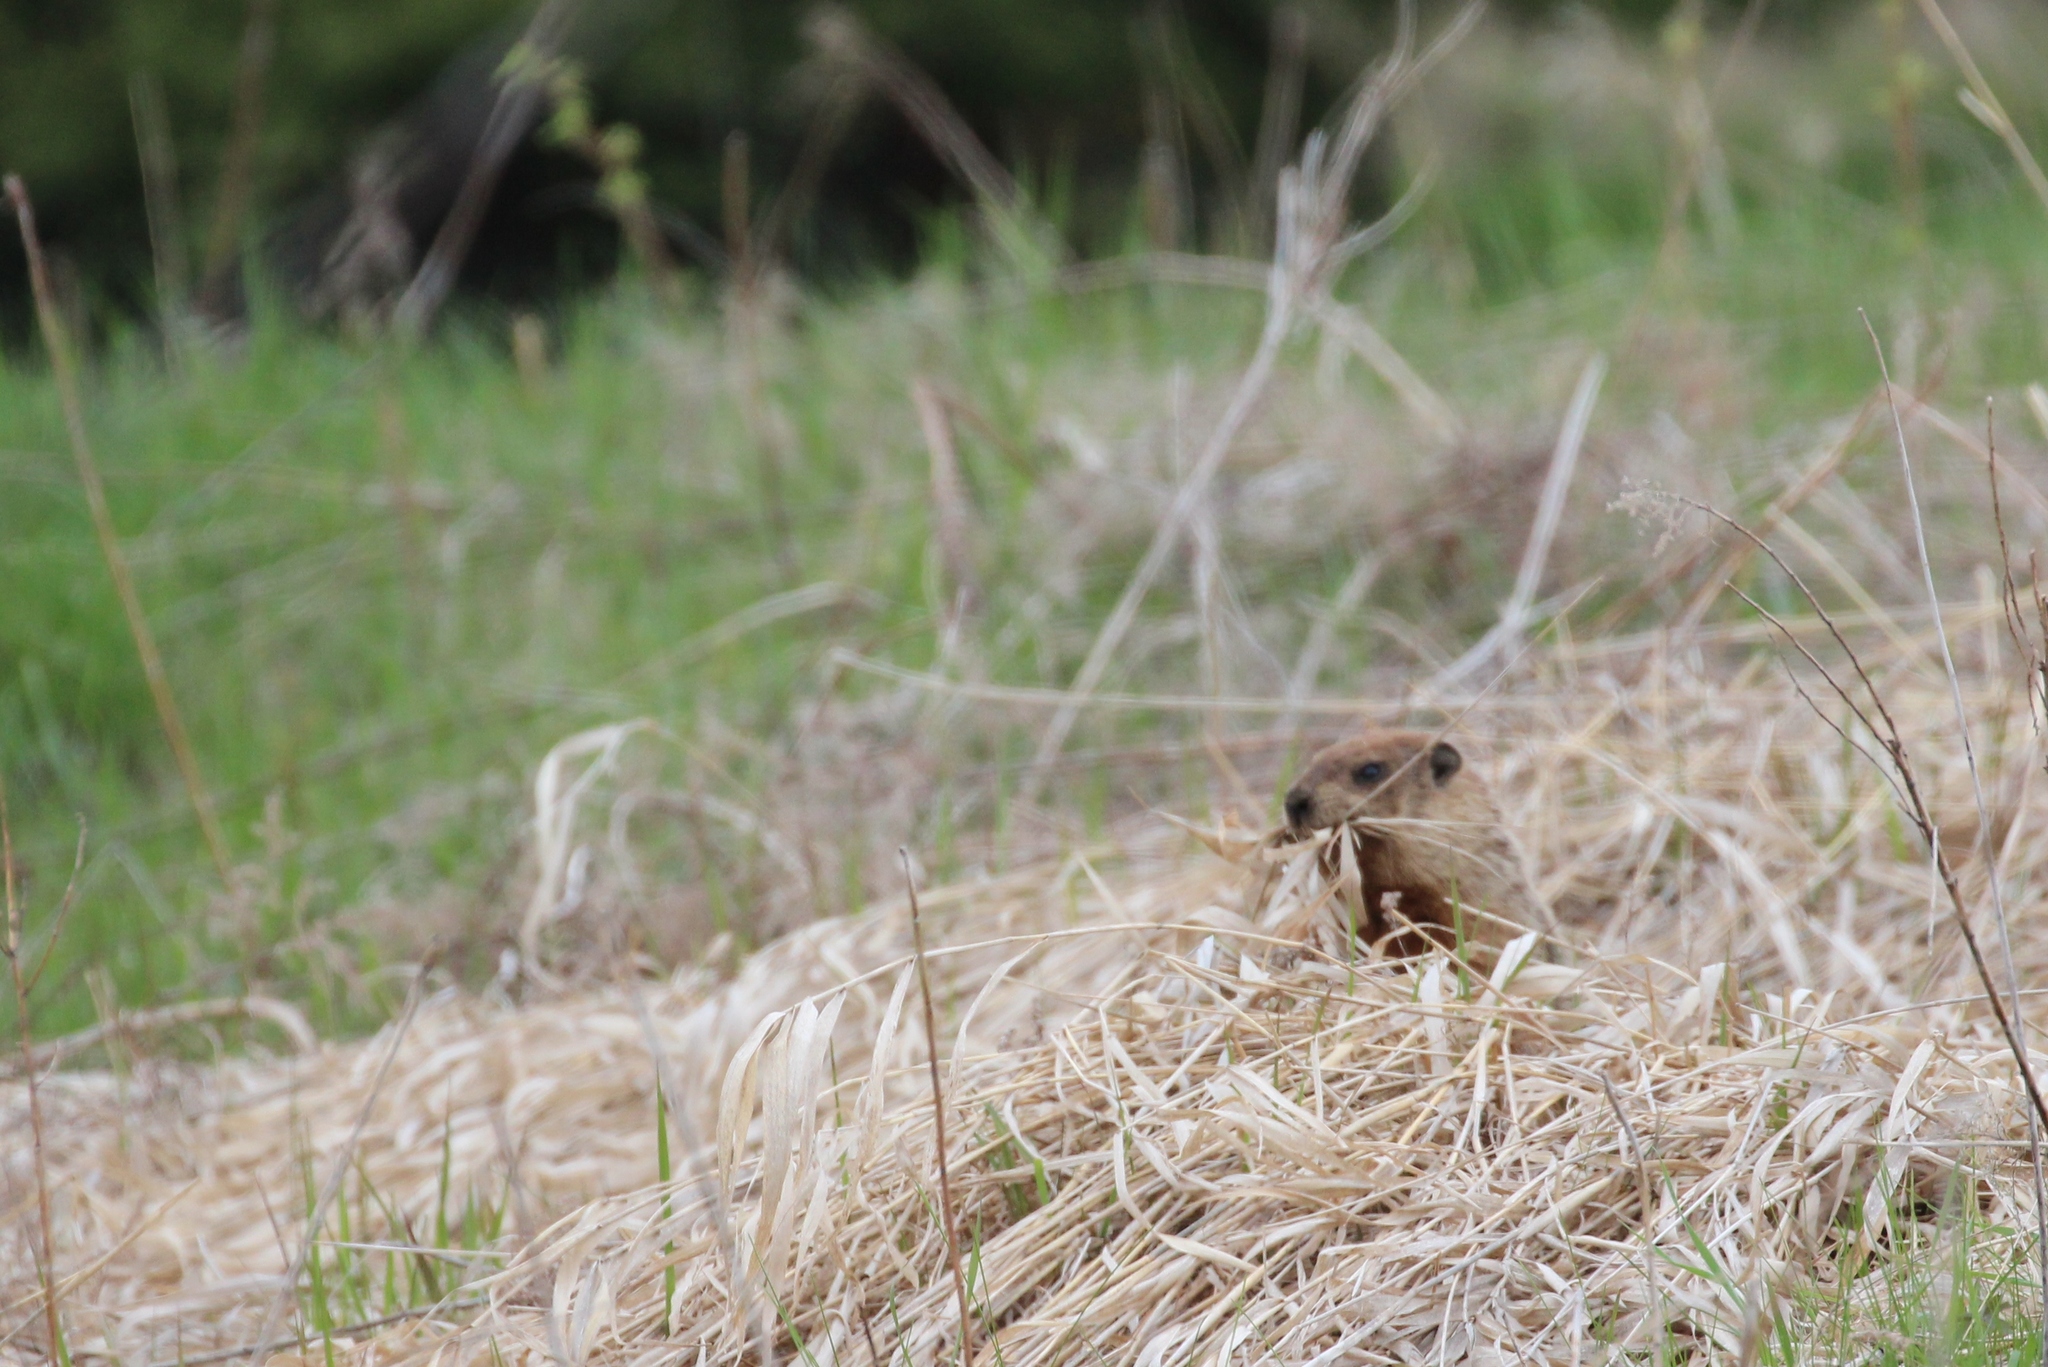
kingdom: Animalia
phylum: Chordata
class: Mammalia
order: Rodentia
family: Sciuridae
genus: Marmota
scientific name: Marmota monax
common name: Groundhog
